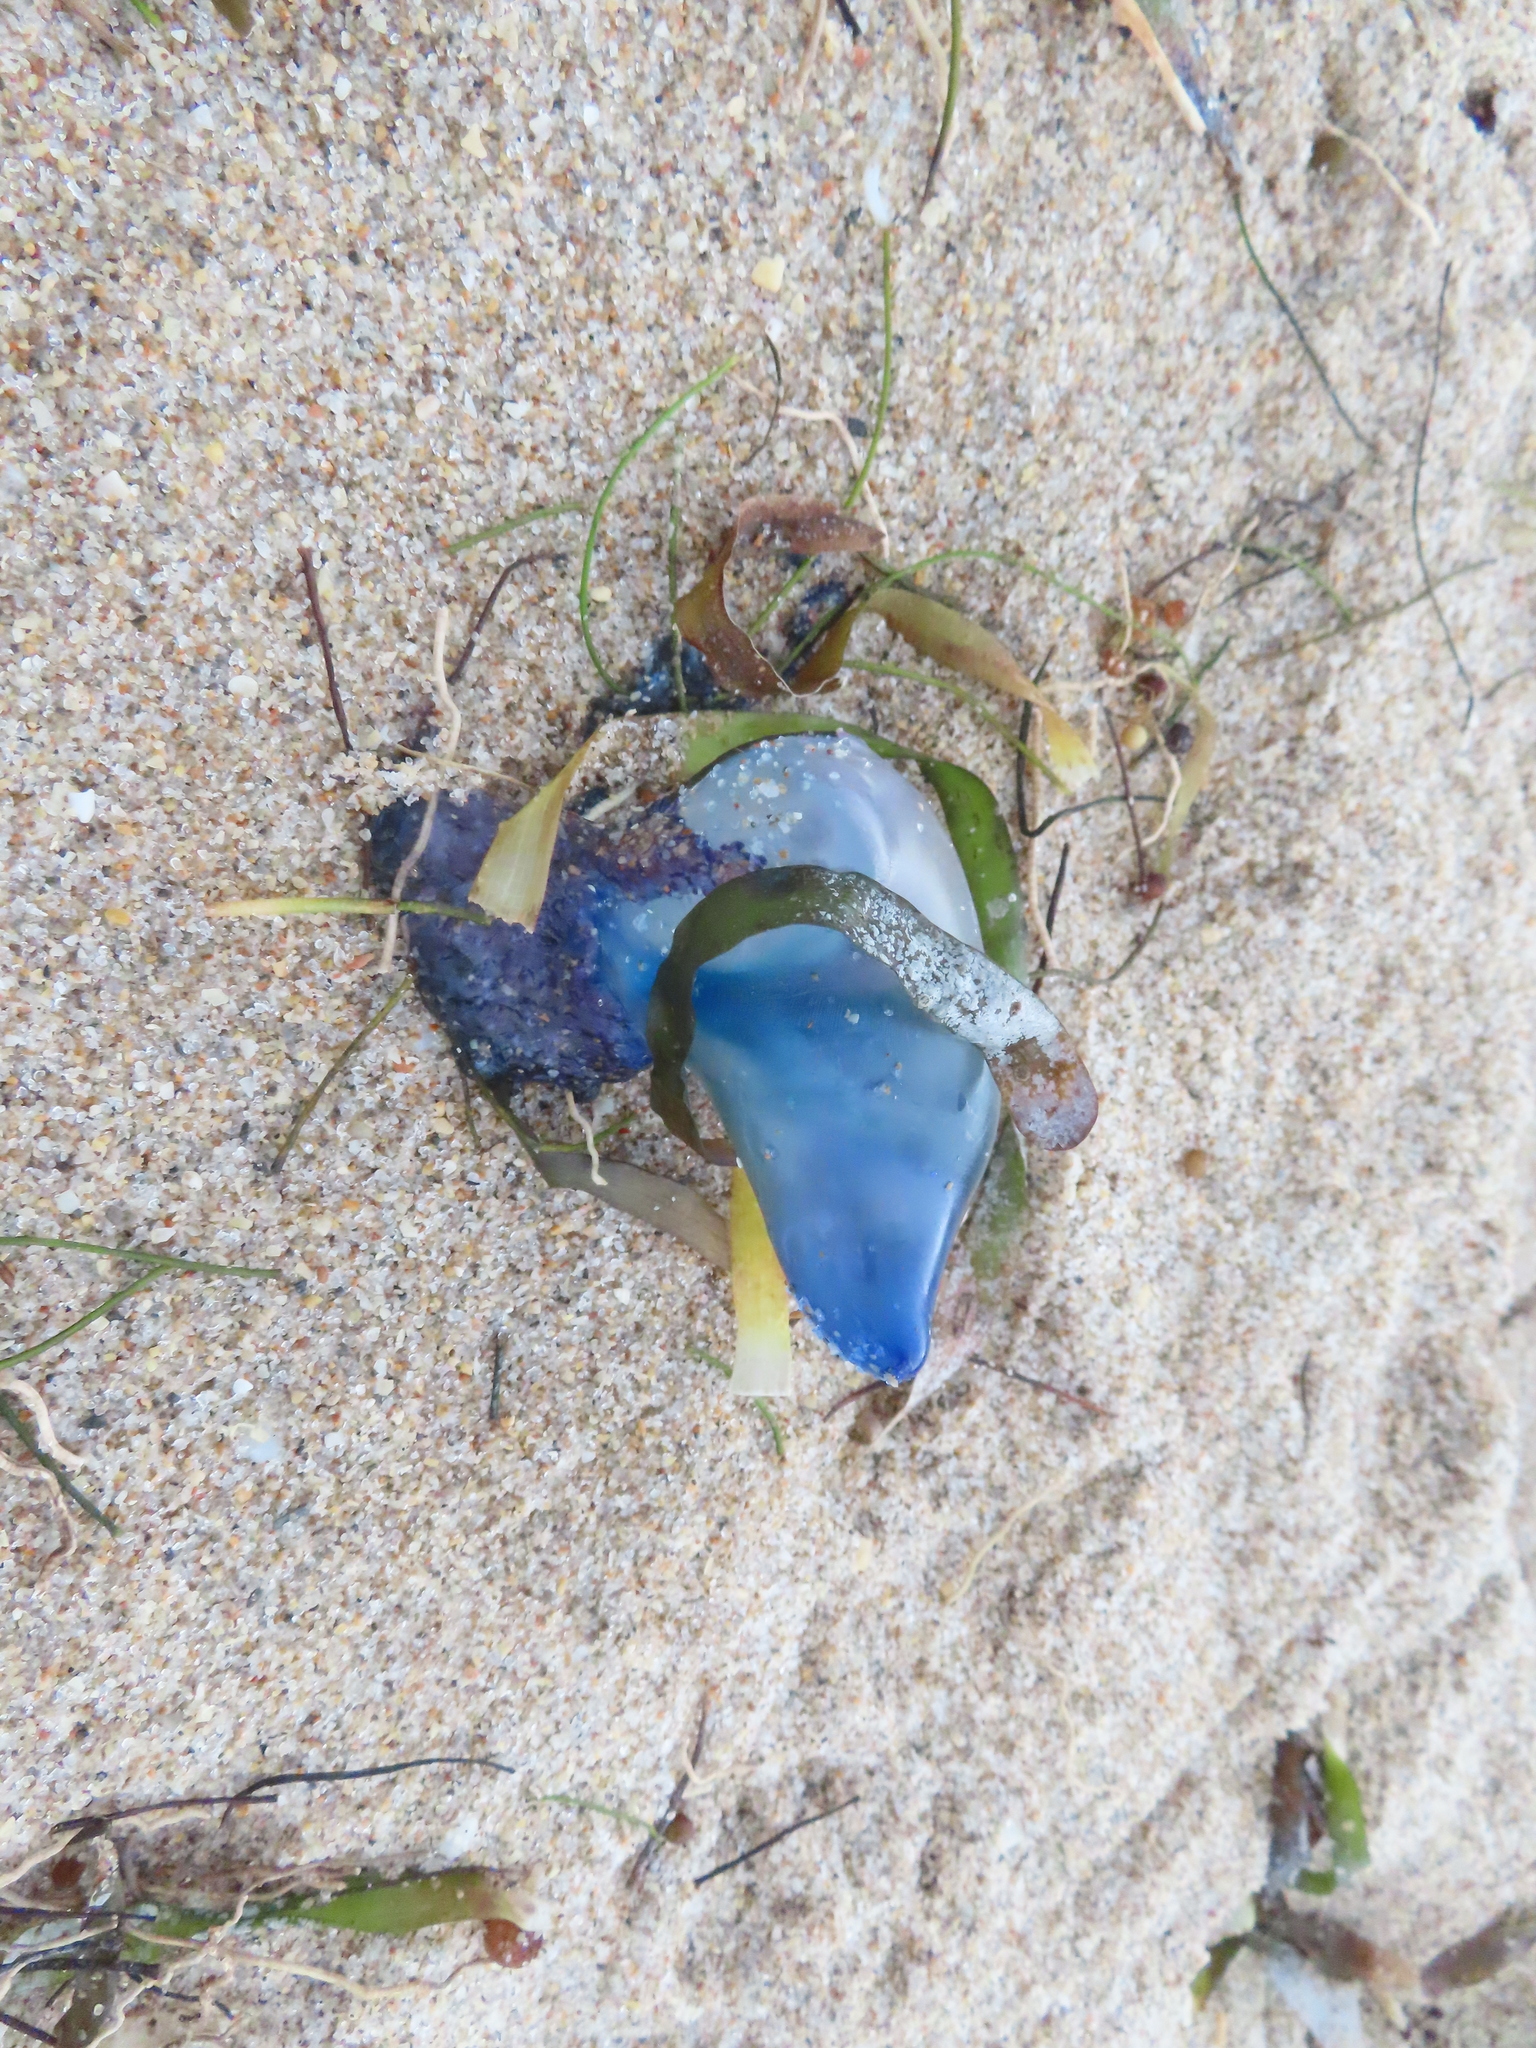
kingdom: Animalia
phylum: Cnidaria
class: Hydrozoa
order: Siphonophorae
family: Physaliidae
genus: Physalia
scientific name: Physalia physalis
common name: Portuguese man-of-war
